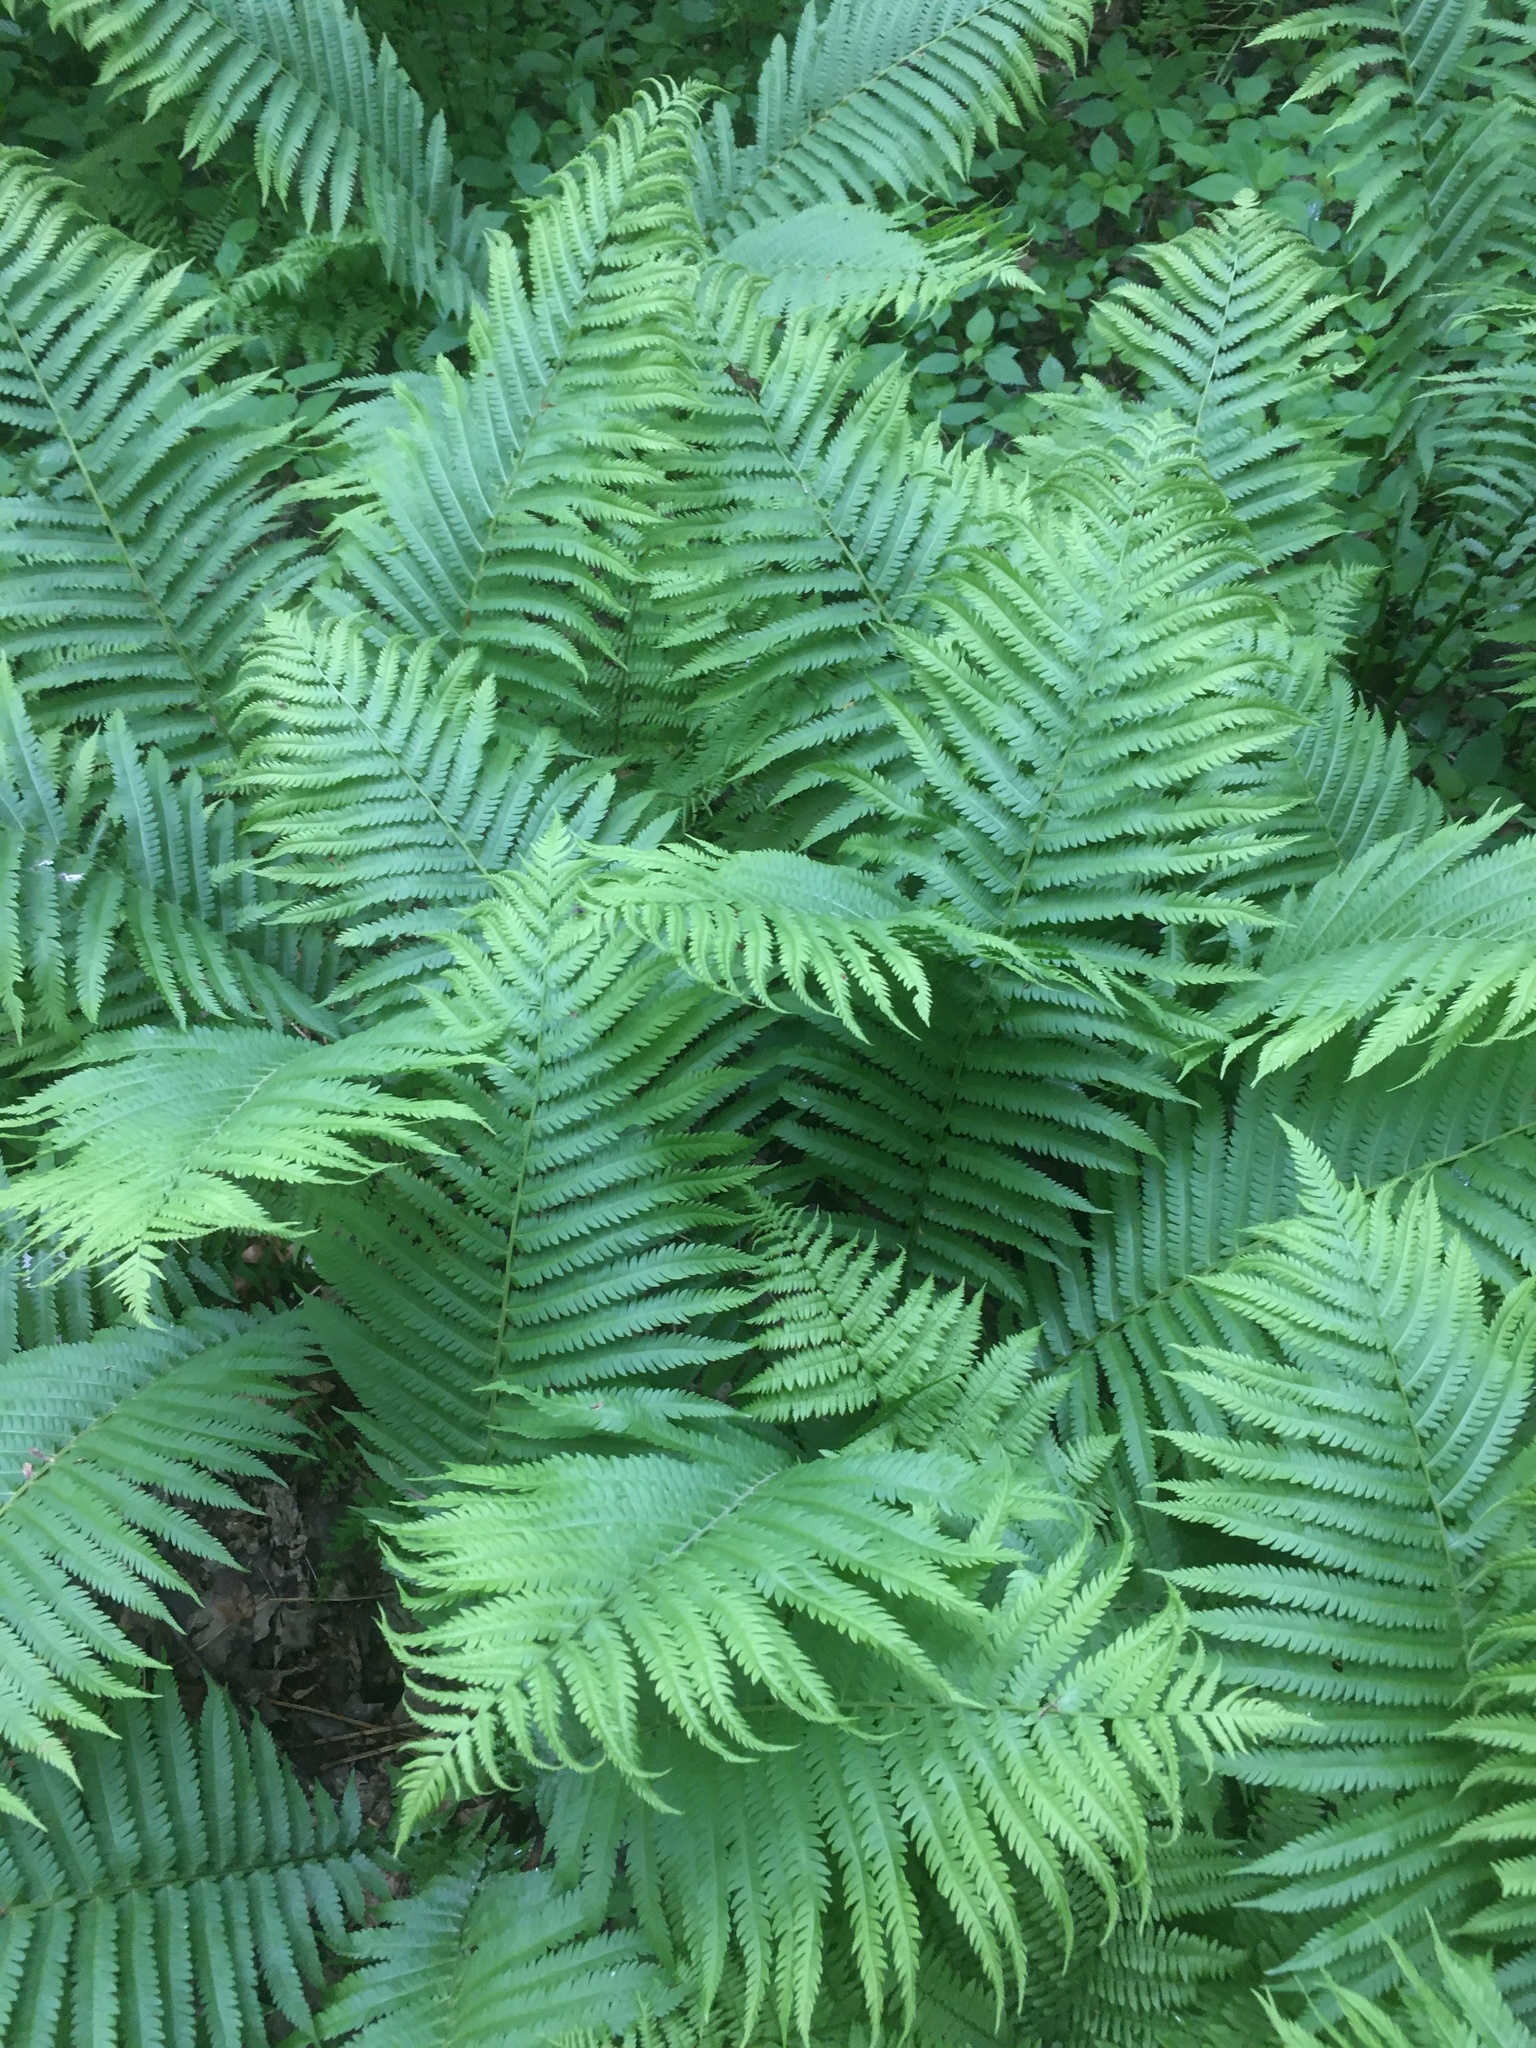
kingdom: Plantae
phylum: Tracheophyta
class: Polypodiopsida
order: Polypodiales
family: Onocleaceae
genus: Matteuccia
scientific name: Matteuccia struthiopteris
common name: Ostrich fern
